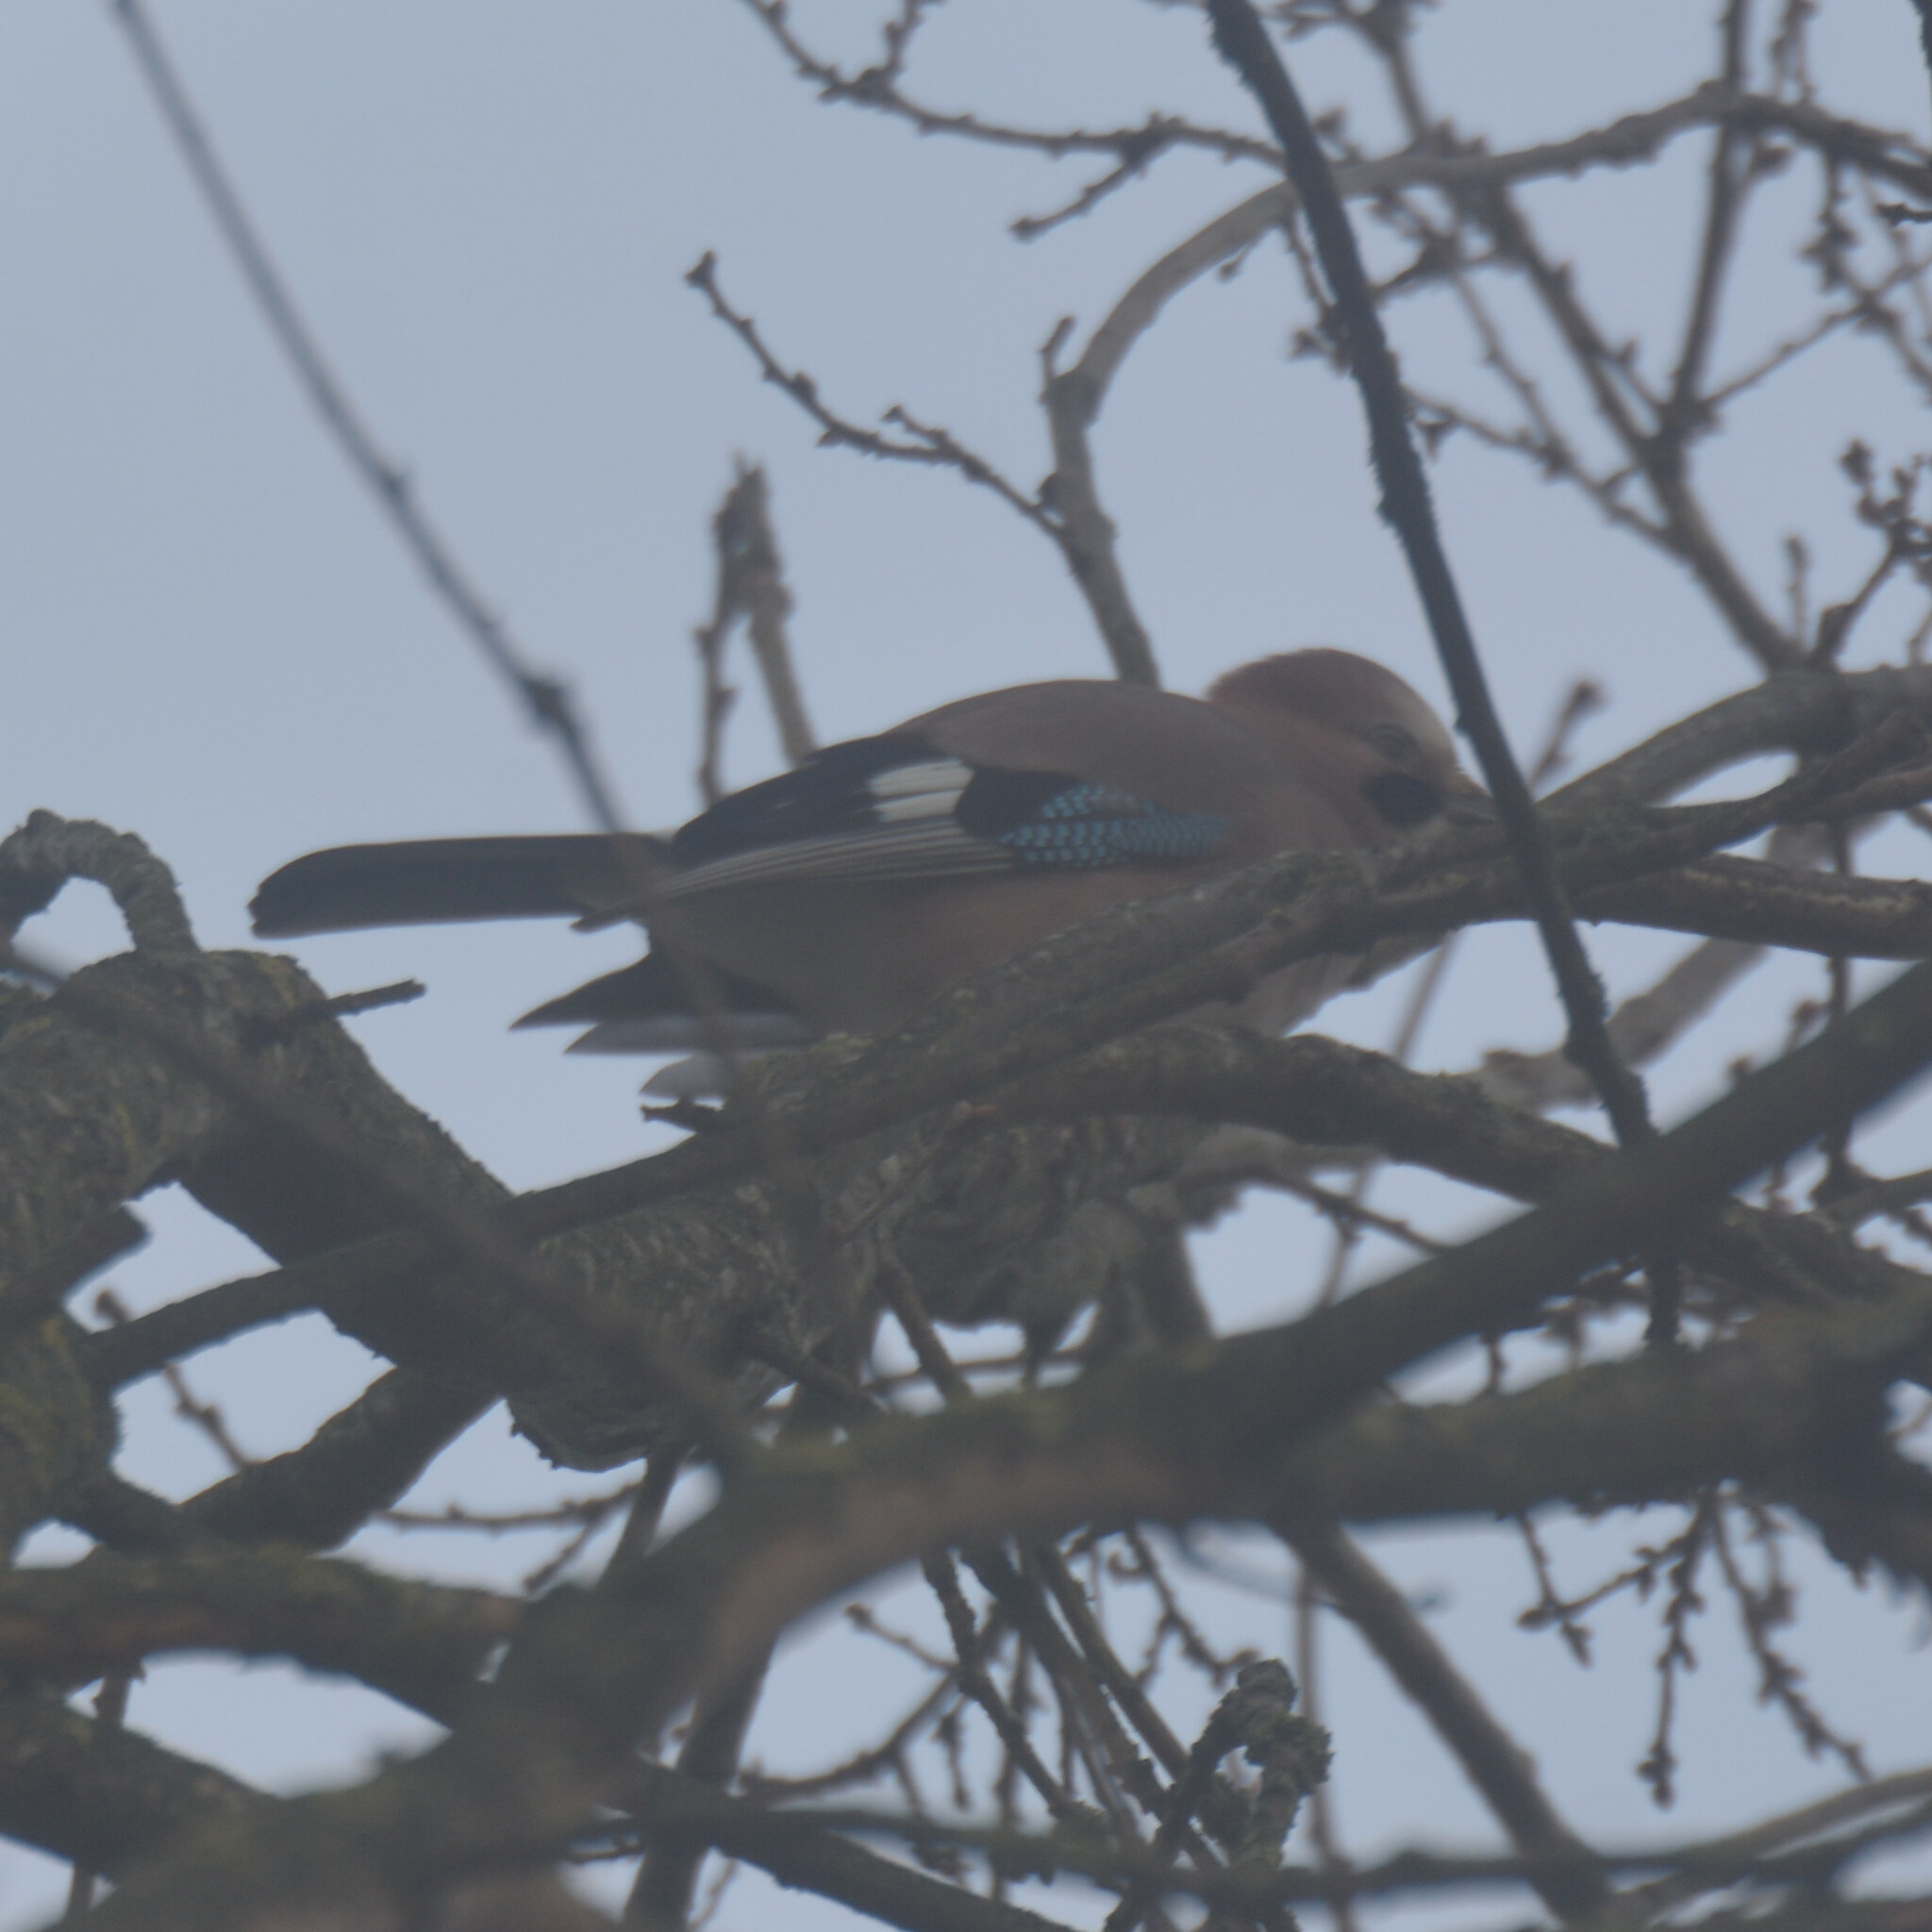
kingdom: Animalia
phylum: Chordata
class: Aves
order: Passeriformes
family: Corvidae
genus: Garrulus
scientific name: Garrulus glandarius
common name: Eurasian jay
